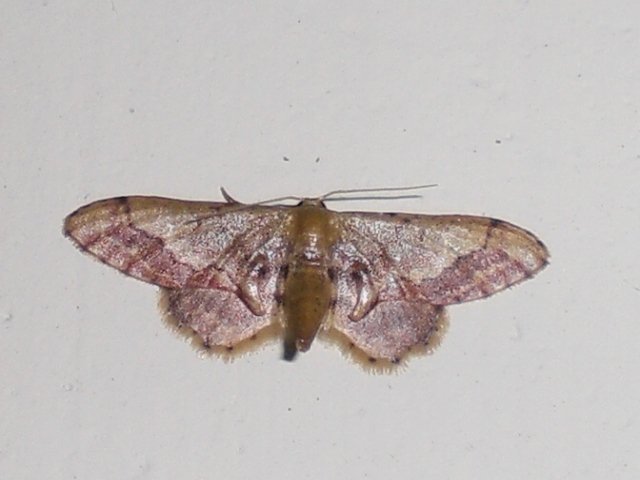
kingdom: Animalia
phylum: Arthropoda
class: Insecta
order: Lepidoptera
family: Geometridae
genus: Idaea
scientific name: Idaea violacea
